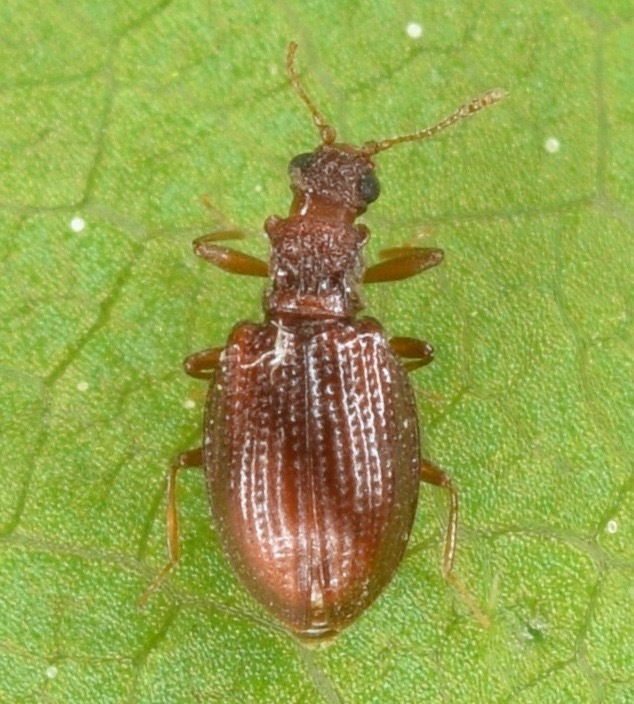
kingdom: Animalia
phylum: Arthropoda
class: Insecta
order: Coleoptera
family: Latridiidae
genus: Stephostethus
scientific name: Stephostethus liratus
